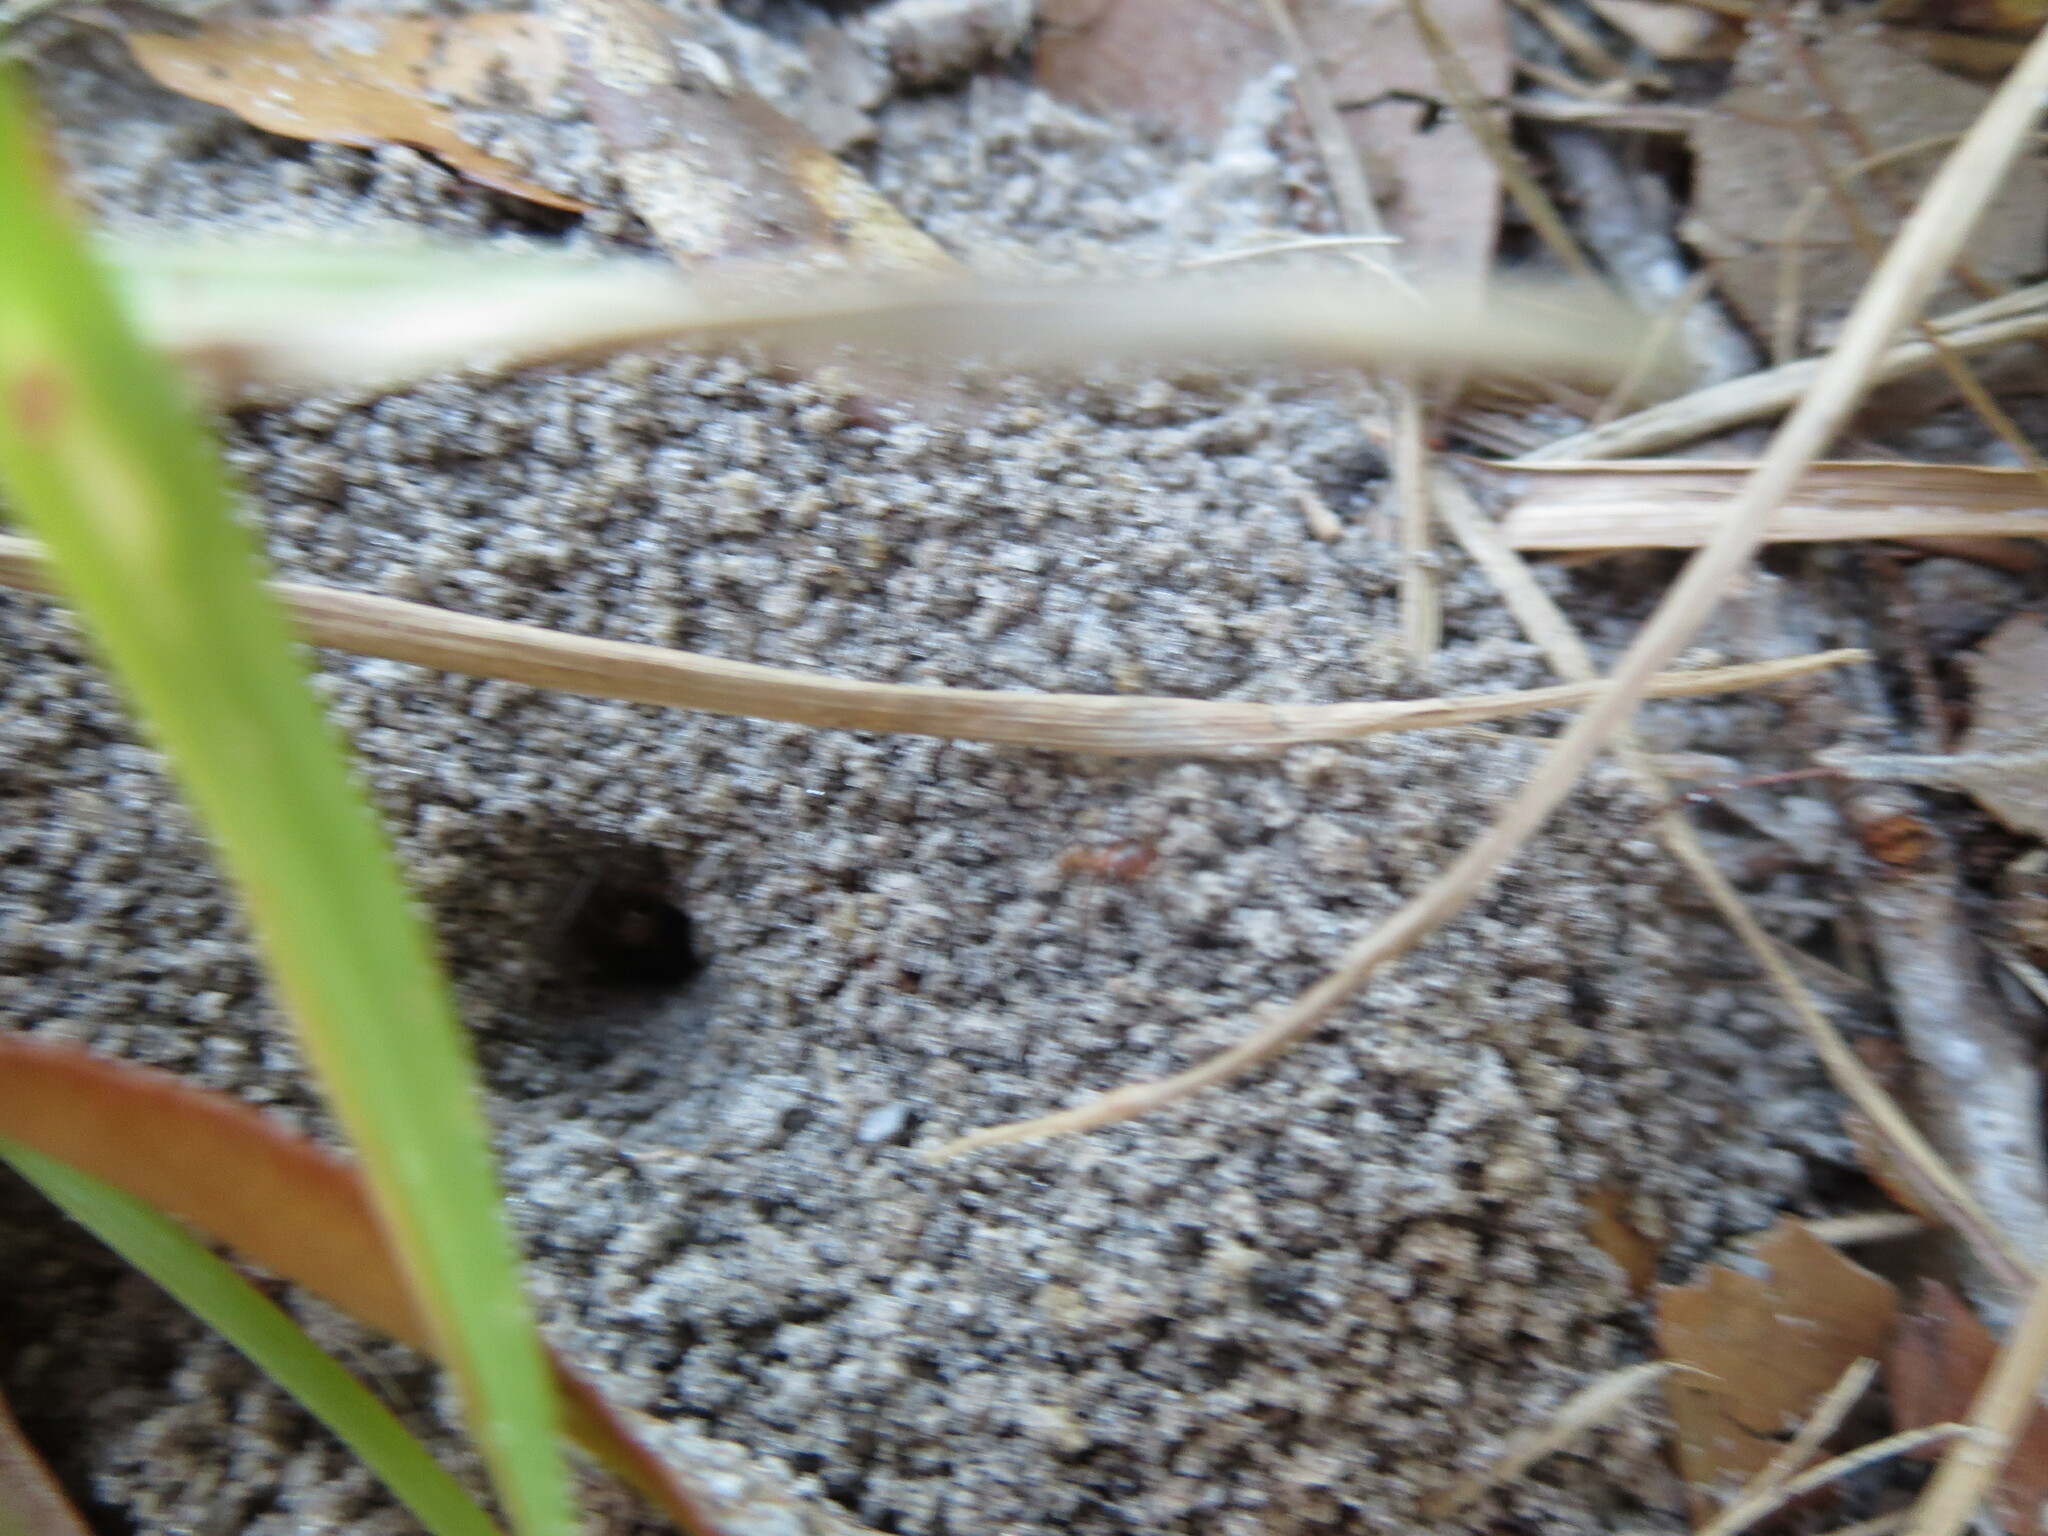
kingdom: Animalia
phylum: Arthropoda
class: Insecta
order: Hymenoptera
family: Formicidae
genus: Dorymyrmex
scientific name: Dorymyrmex bureni
